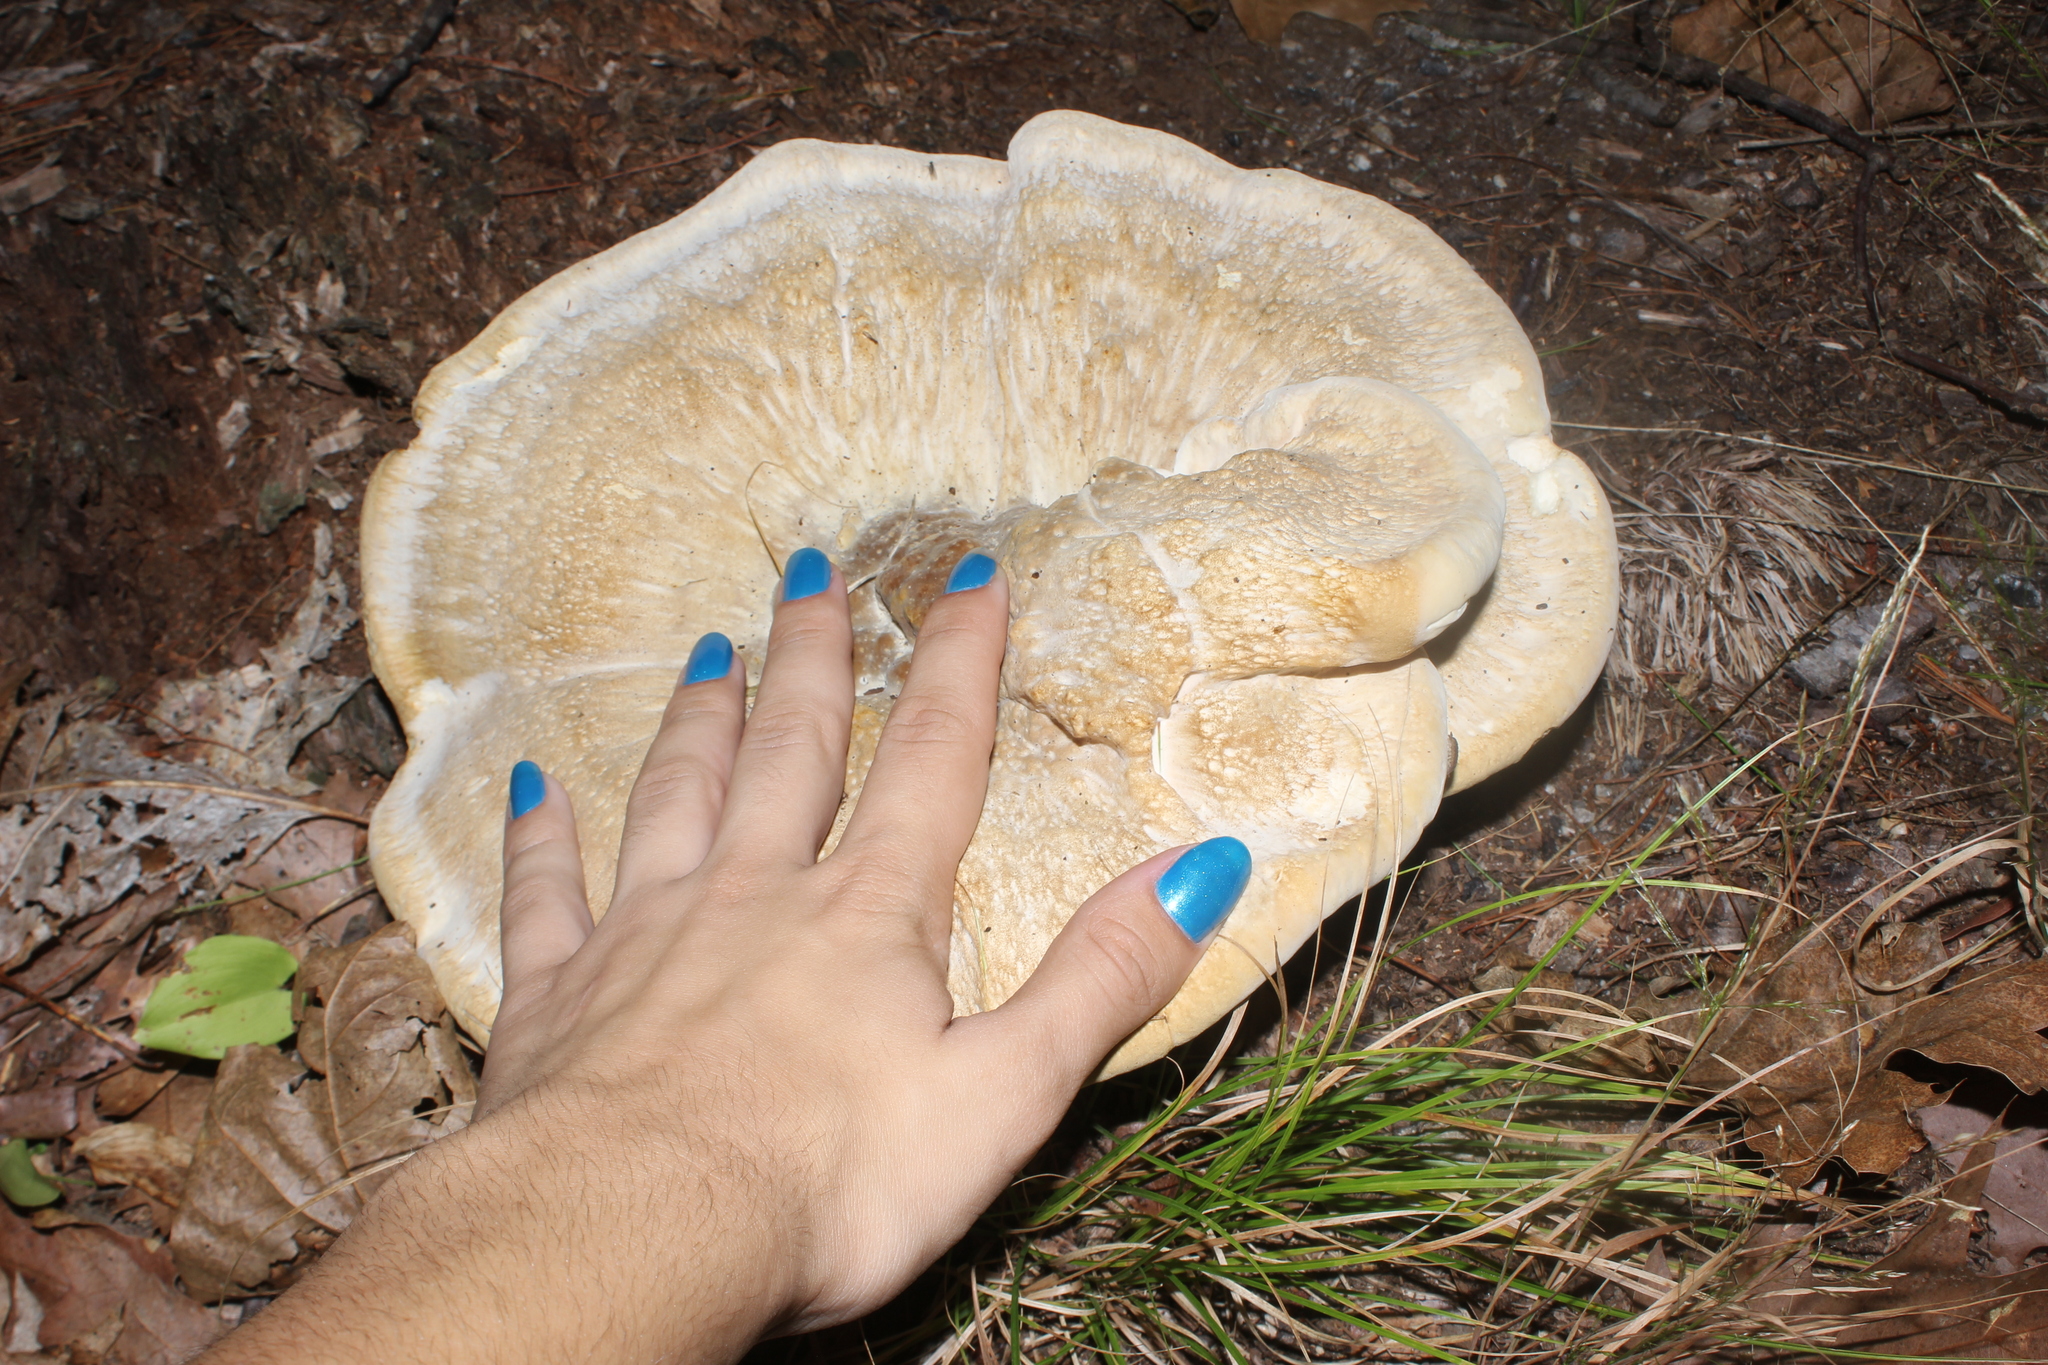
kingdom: Fungi
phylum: Basidiomycota
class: Agaricomycetes
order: Russulales
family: Bondarzewiaceae
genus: Bondarzewia
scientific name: Bondarzewia berkeleyi
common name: Berkeley's polypore
